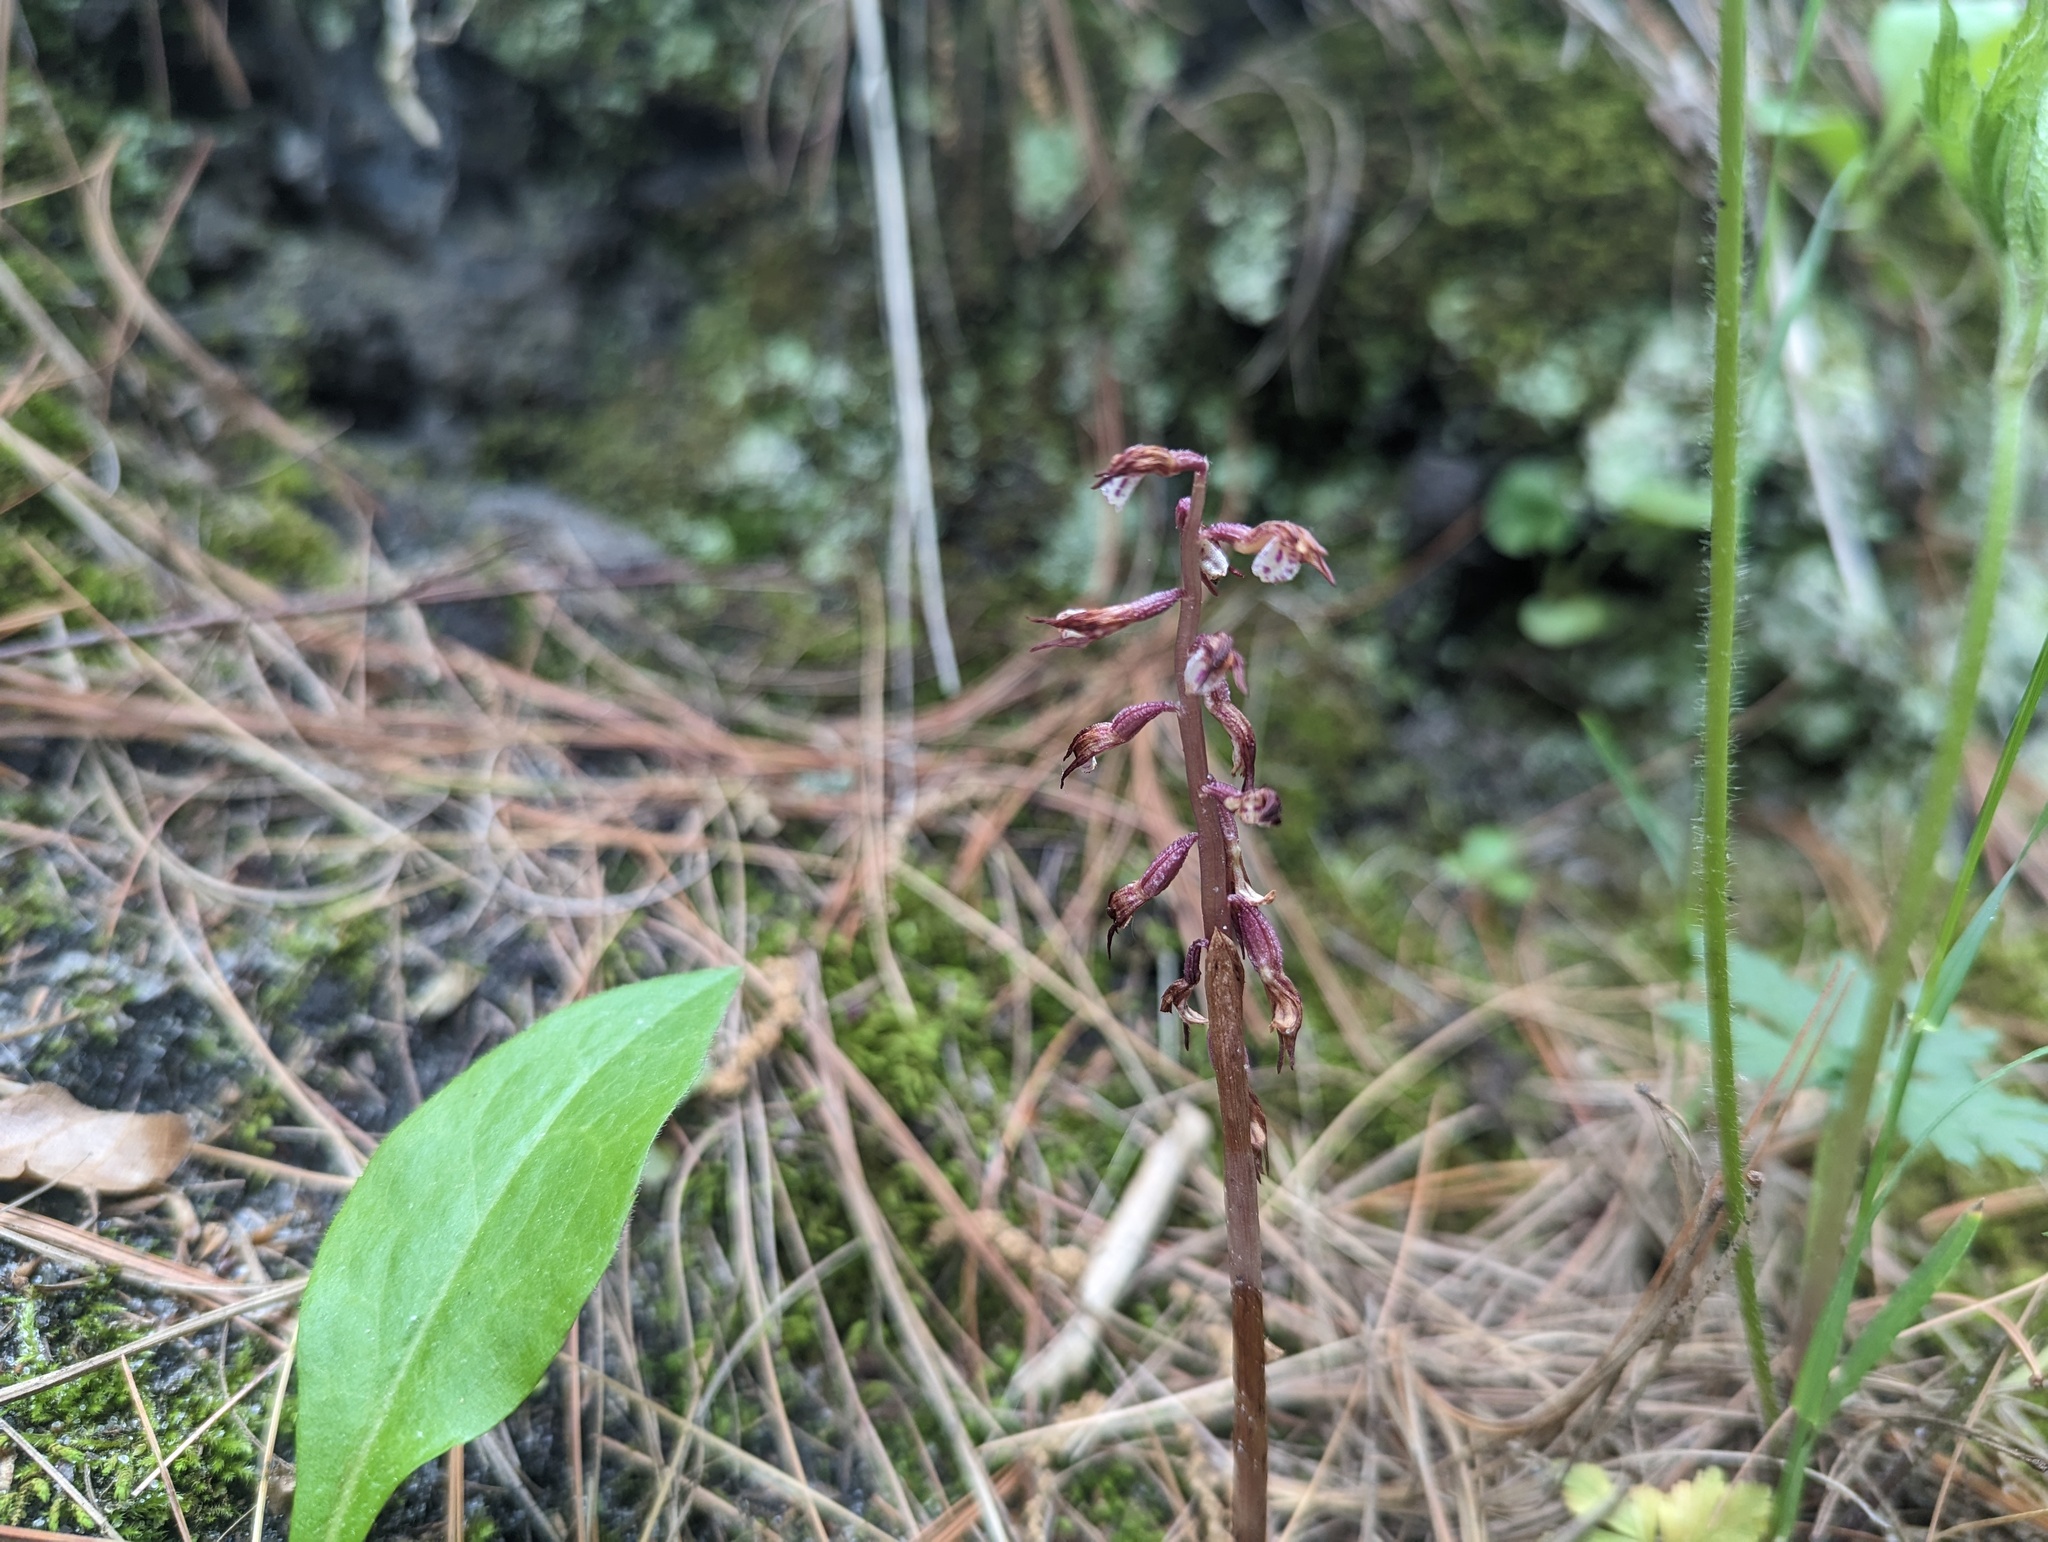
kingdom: Plantae
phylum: Tracheophyta
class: Liliopsida
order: Asparagales
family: Orchidaceae
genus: Corallorhiza
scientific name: Corallorhiza wisteriana
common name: Spring coralroot
